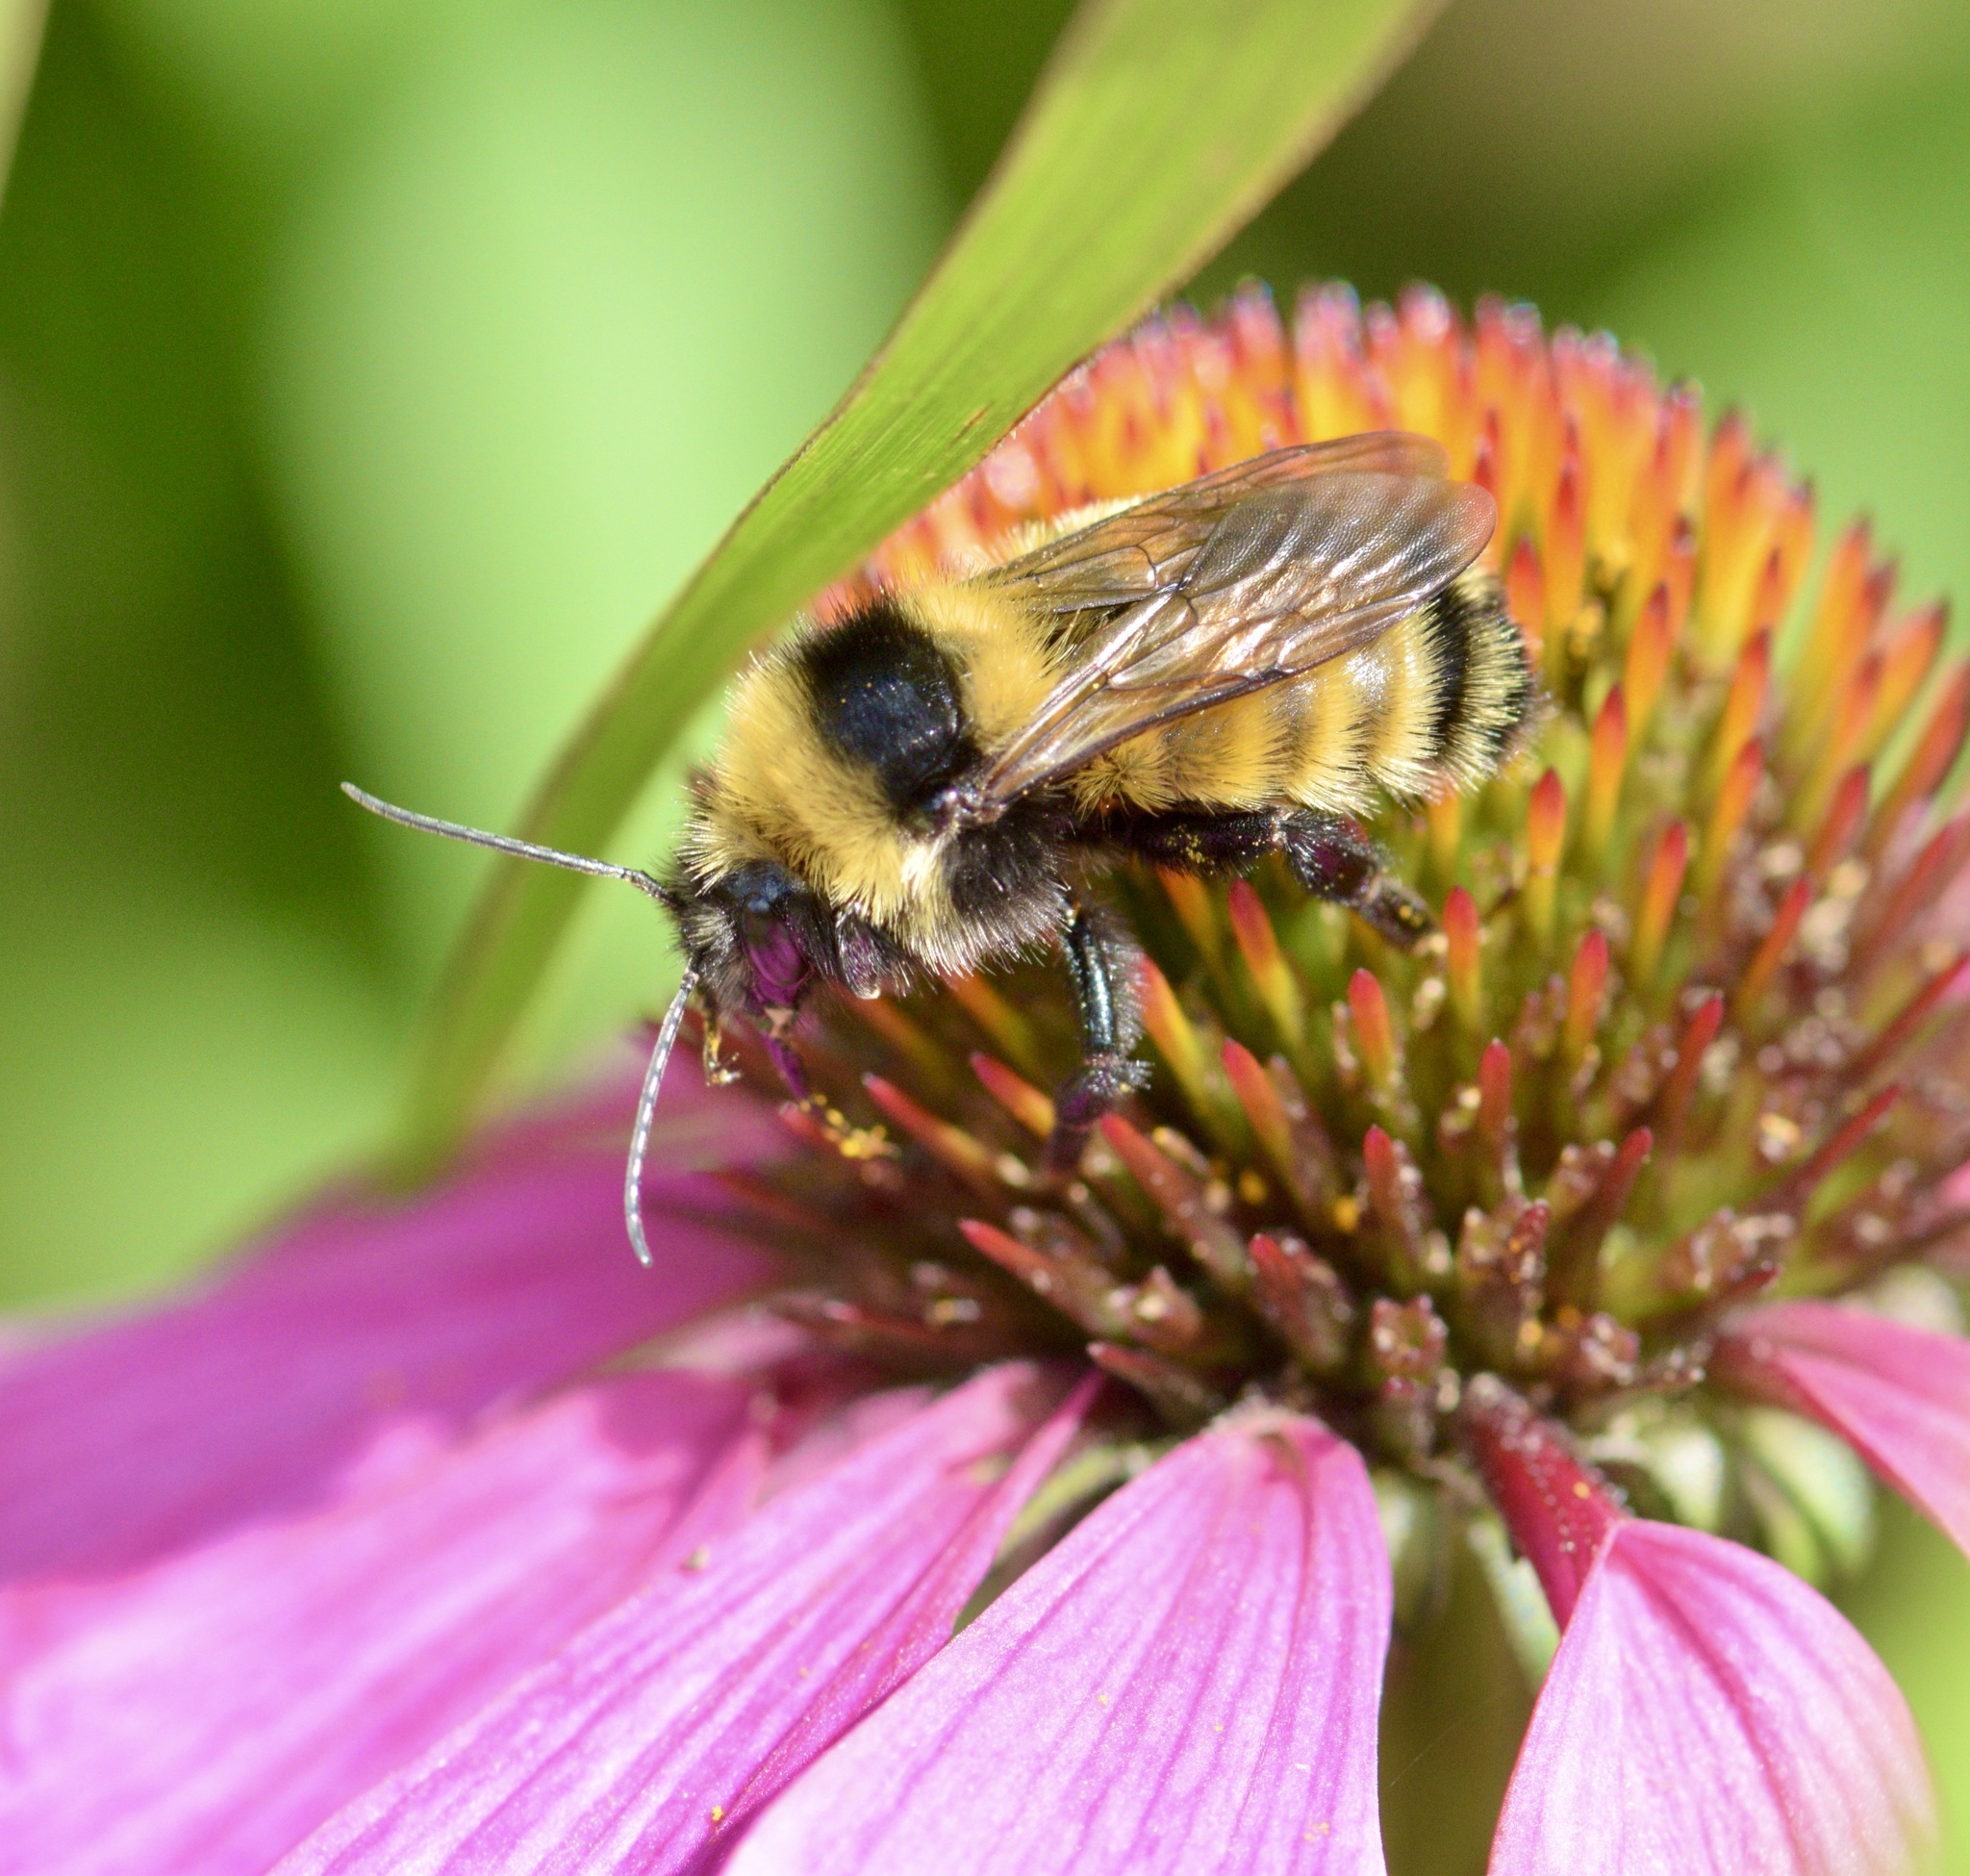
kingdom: Animalia
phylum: Arthropoda
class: Insecta
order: Hymenoptera
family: Apidae
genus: Bombus
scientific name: Bombus borealis
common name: Northern amber bumble bee
